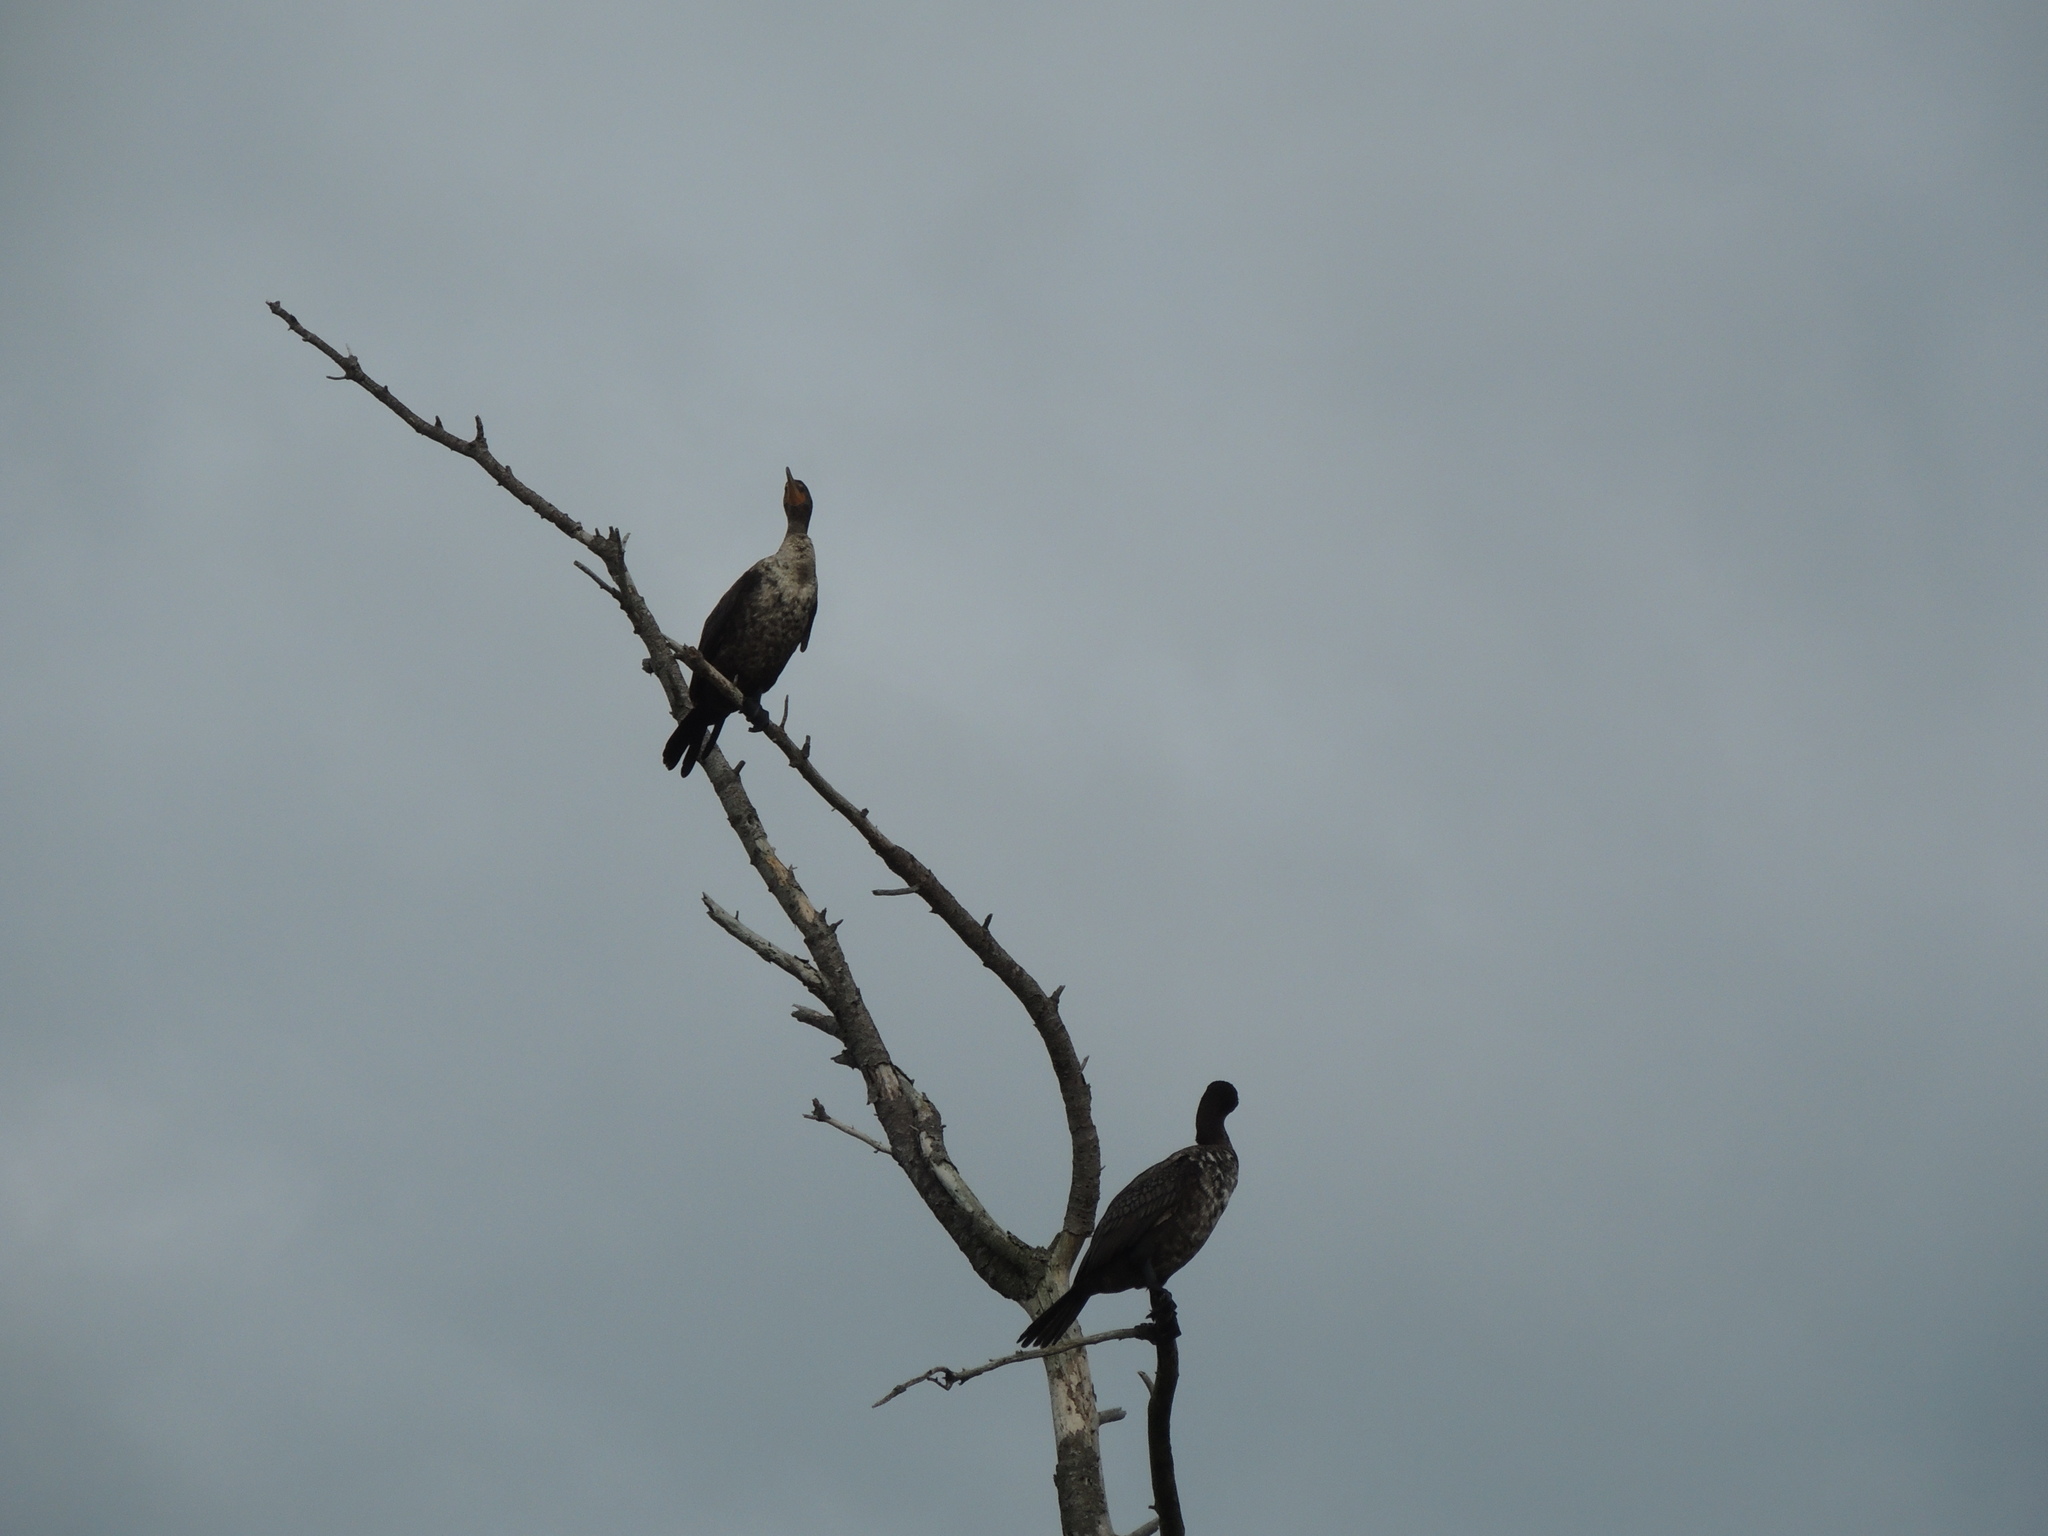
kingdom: Animalia
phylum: Chordata
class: Aves
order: Suliformes
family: Phalacrocoracidae
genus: Phalacrocorax
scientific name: Phalacrocorax auritus
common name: Double-crested cormorant
